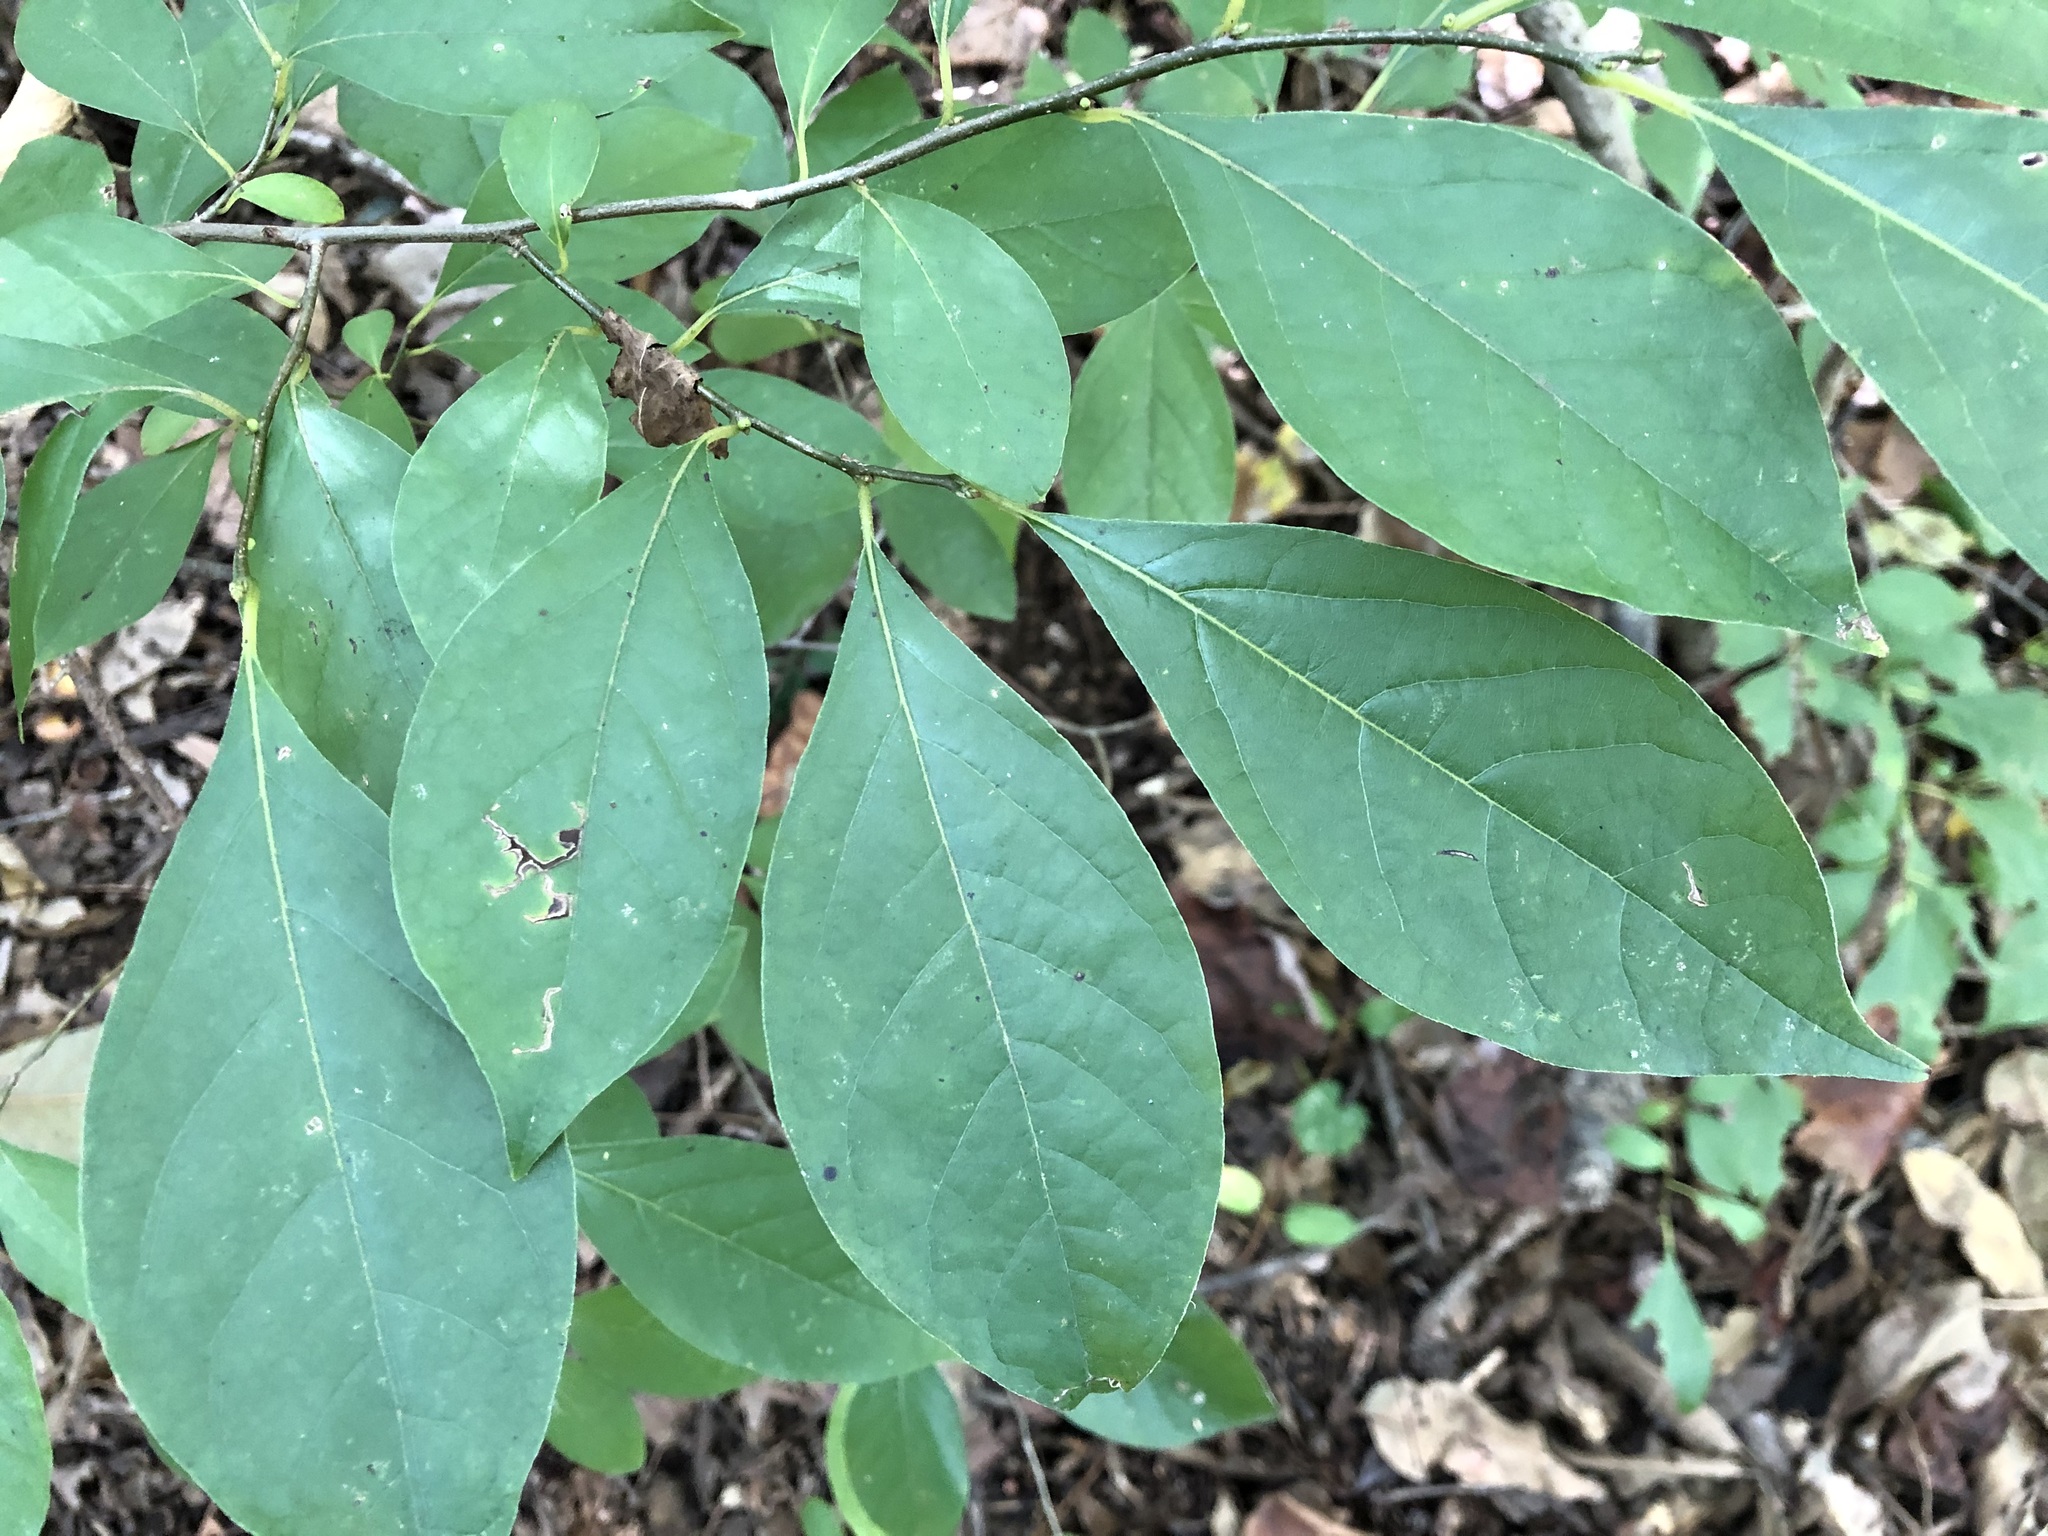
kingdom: Plantae
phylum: Tracheophyta
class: Magnoliopsida
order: Laurales
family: Lauraceae
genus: Lindera
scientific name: Lindera benzoin
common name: Spicebush
